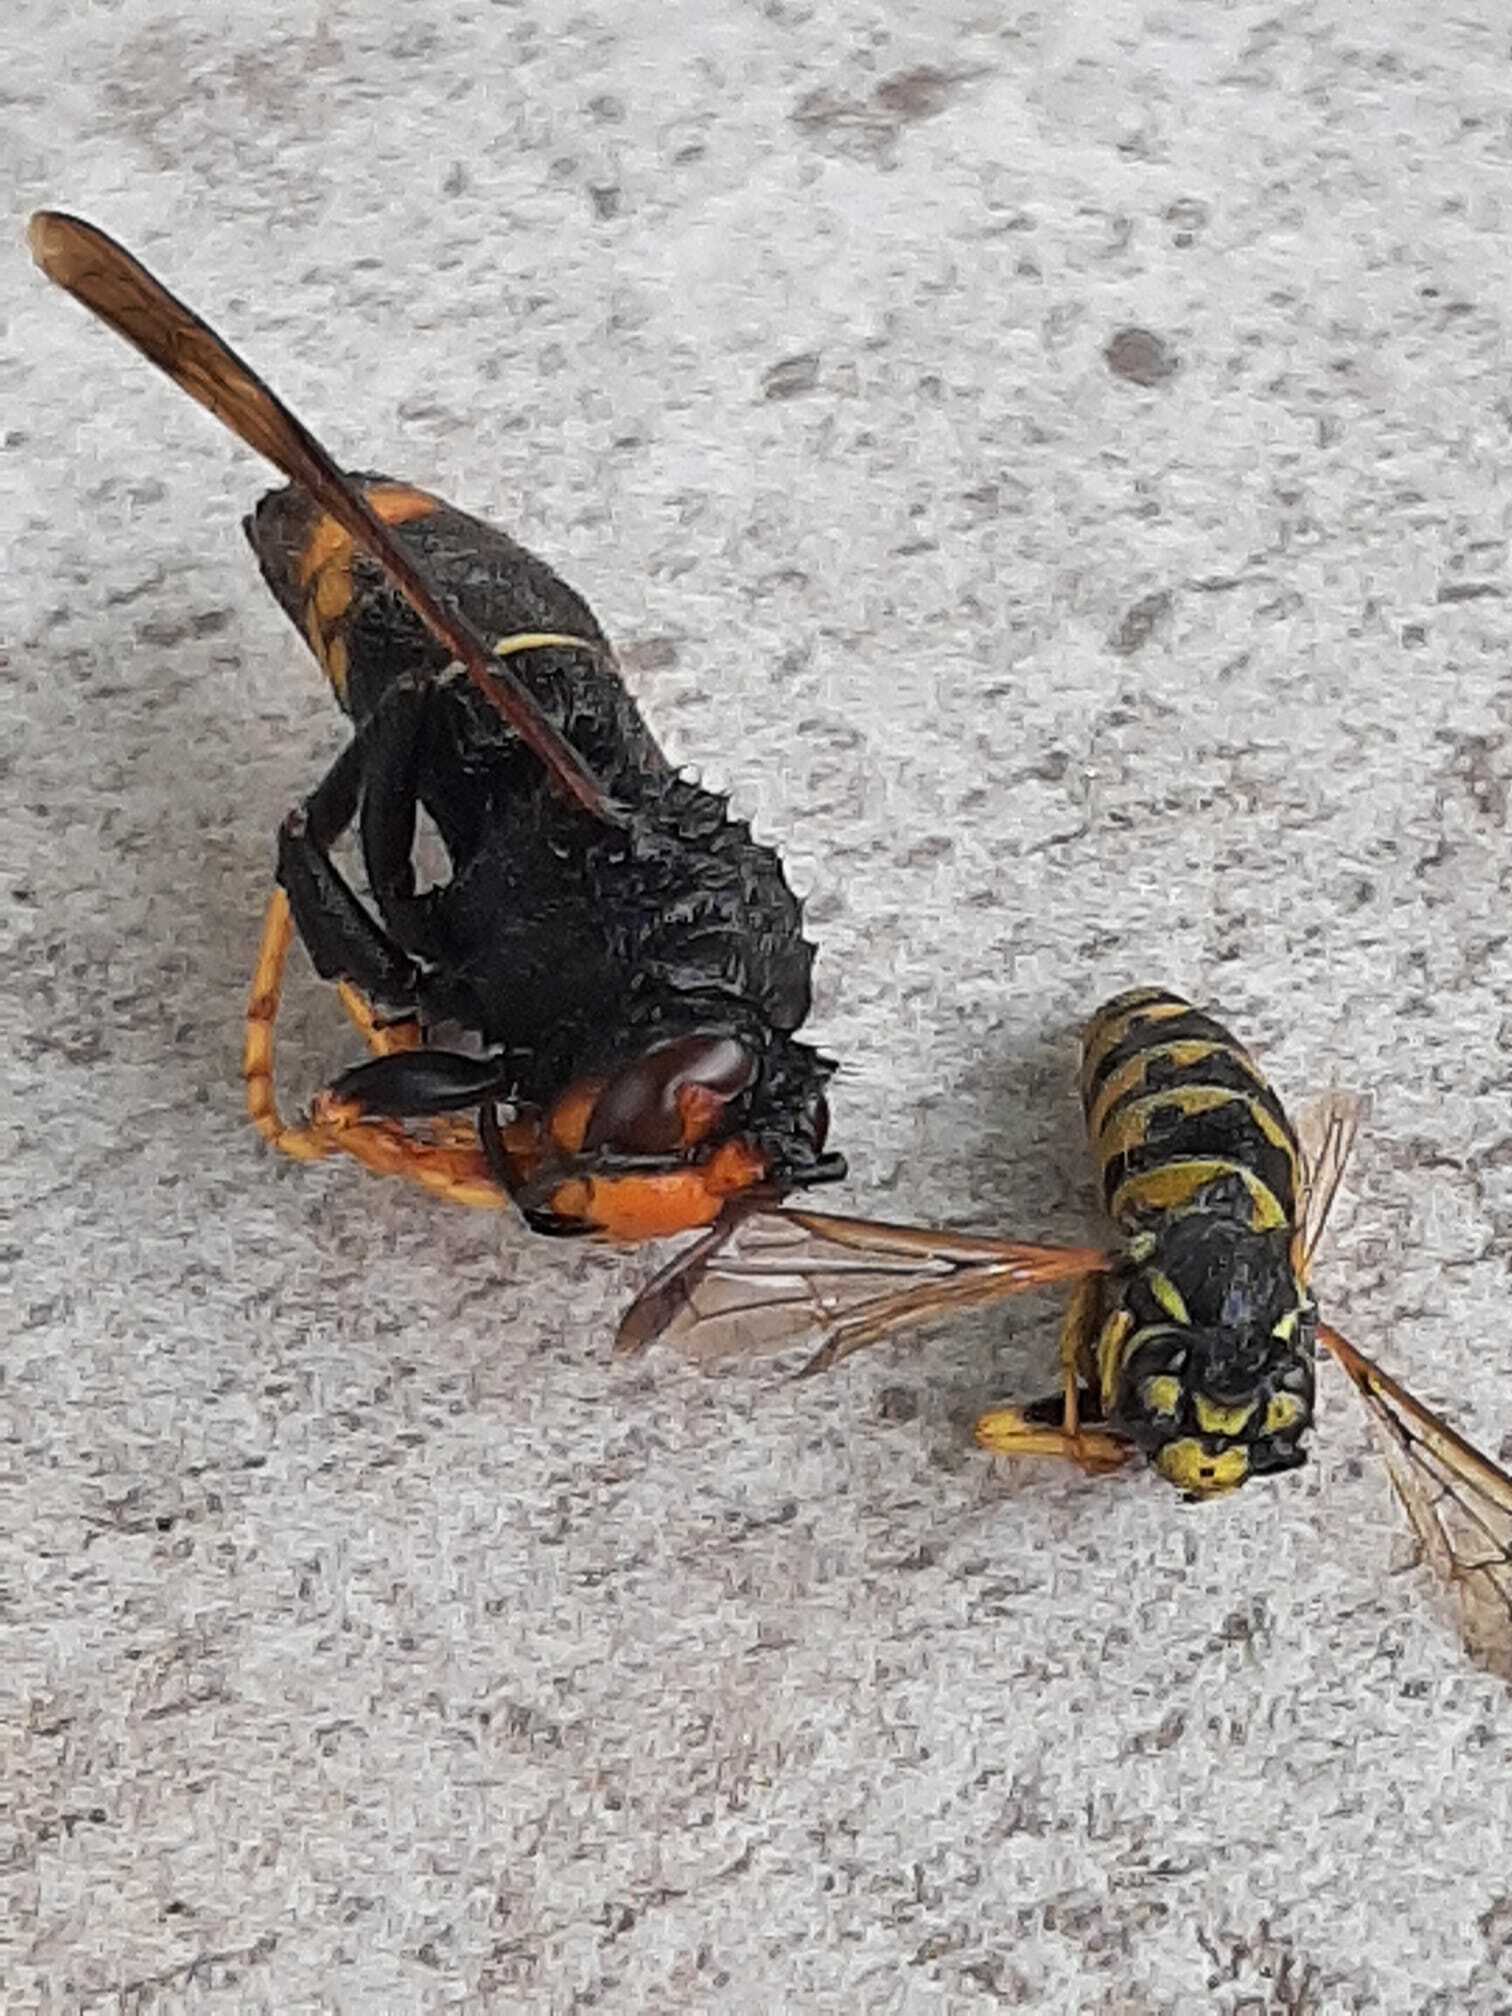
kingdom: Animalia
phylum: Arthropoda
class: Insecta
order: Hymenoptera
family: Vespidae
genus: Vespa
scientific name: Vespa velutina
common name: Asian hornet
